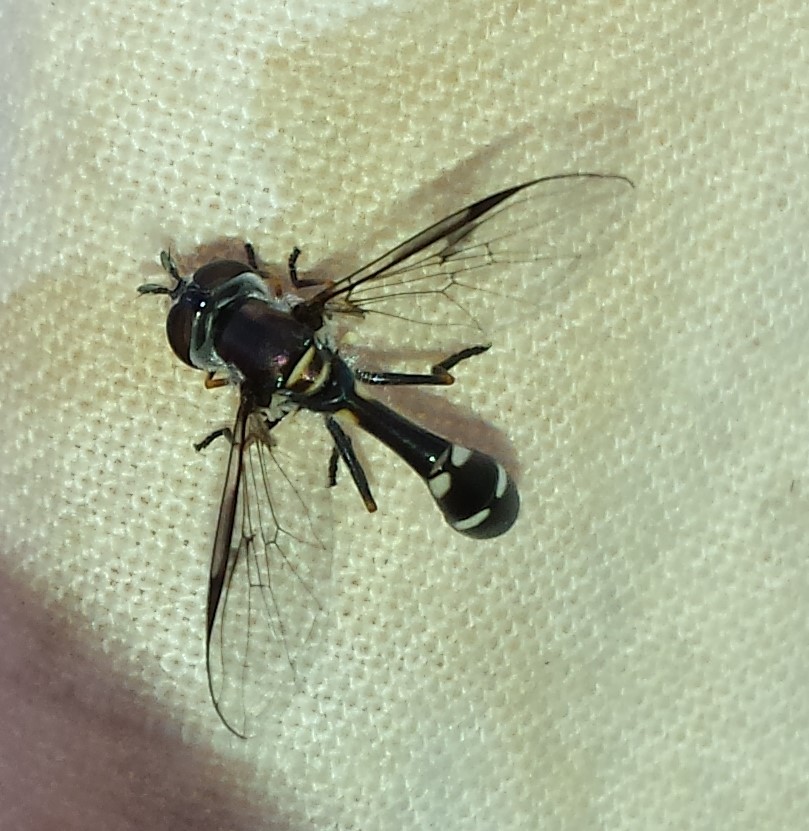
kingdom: Animalia
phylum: Arthropoda
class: Insecta
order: Diptera
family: Syrphidae
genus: Dioprosopa
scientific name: Dioprosopa clavatus
